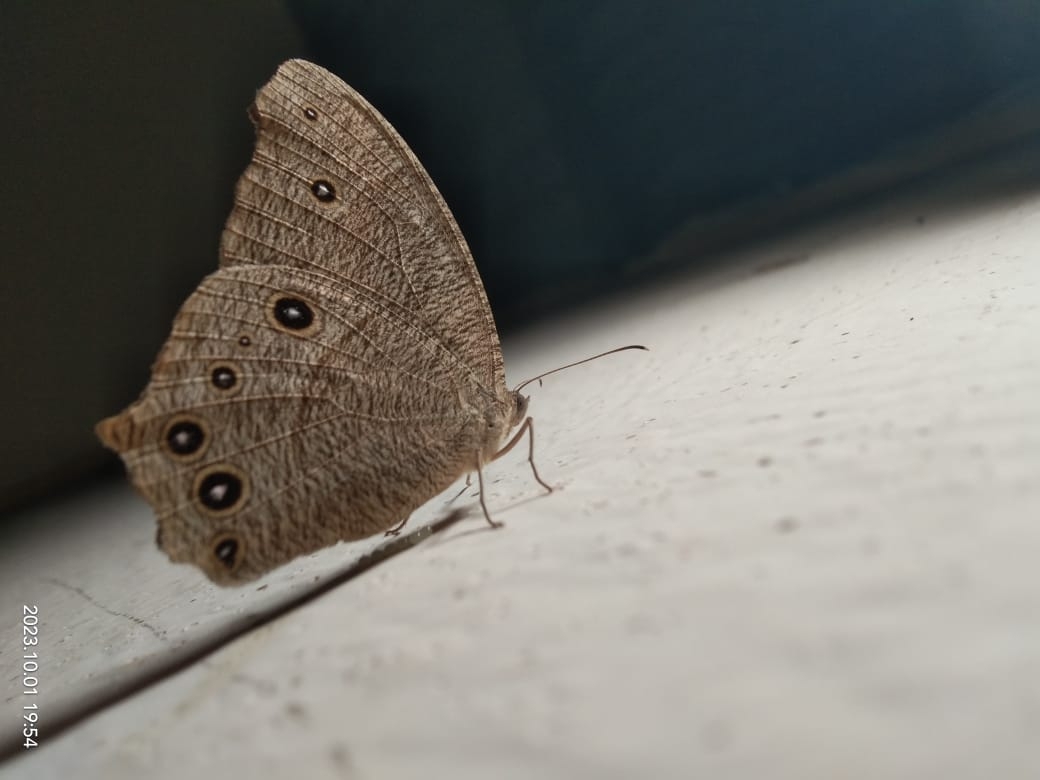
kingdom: Animalia
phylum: Arthropoda
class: Insecta
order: Lepidoptera
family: Nymphalidae
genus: Melanitis
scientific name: Melanitis leda
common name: Twilight brown
